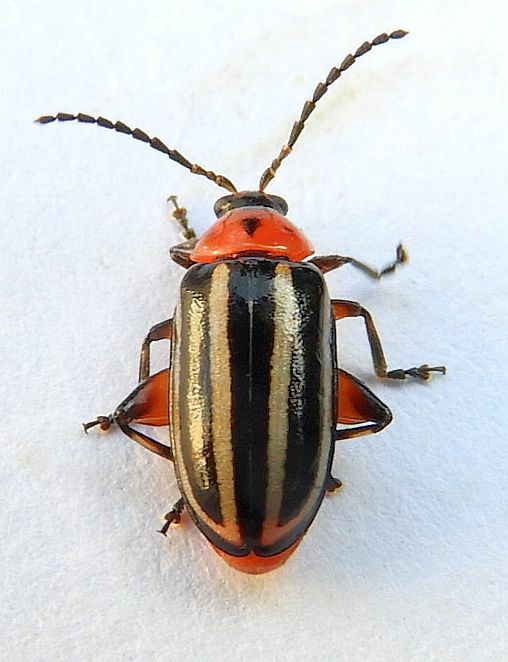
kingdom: Animalia
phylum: Arthropoda
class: Insecta
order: Coleoptera
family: Chrysomelidae
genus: Disonycha
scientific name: Disonycha glabrata
